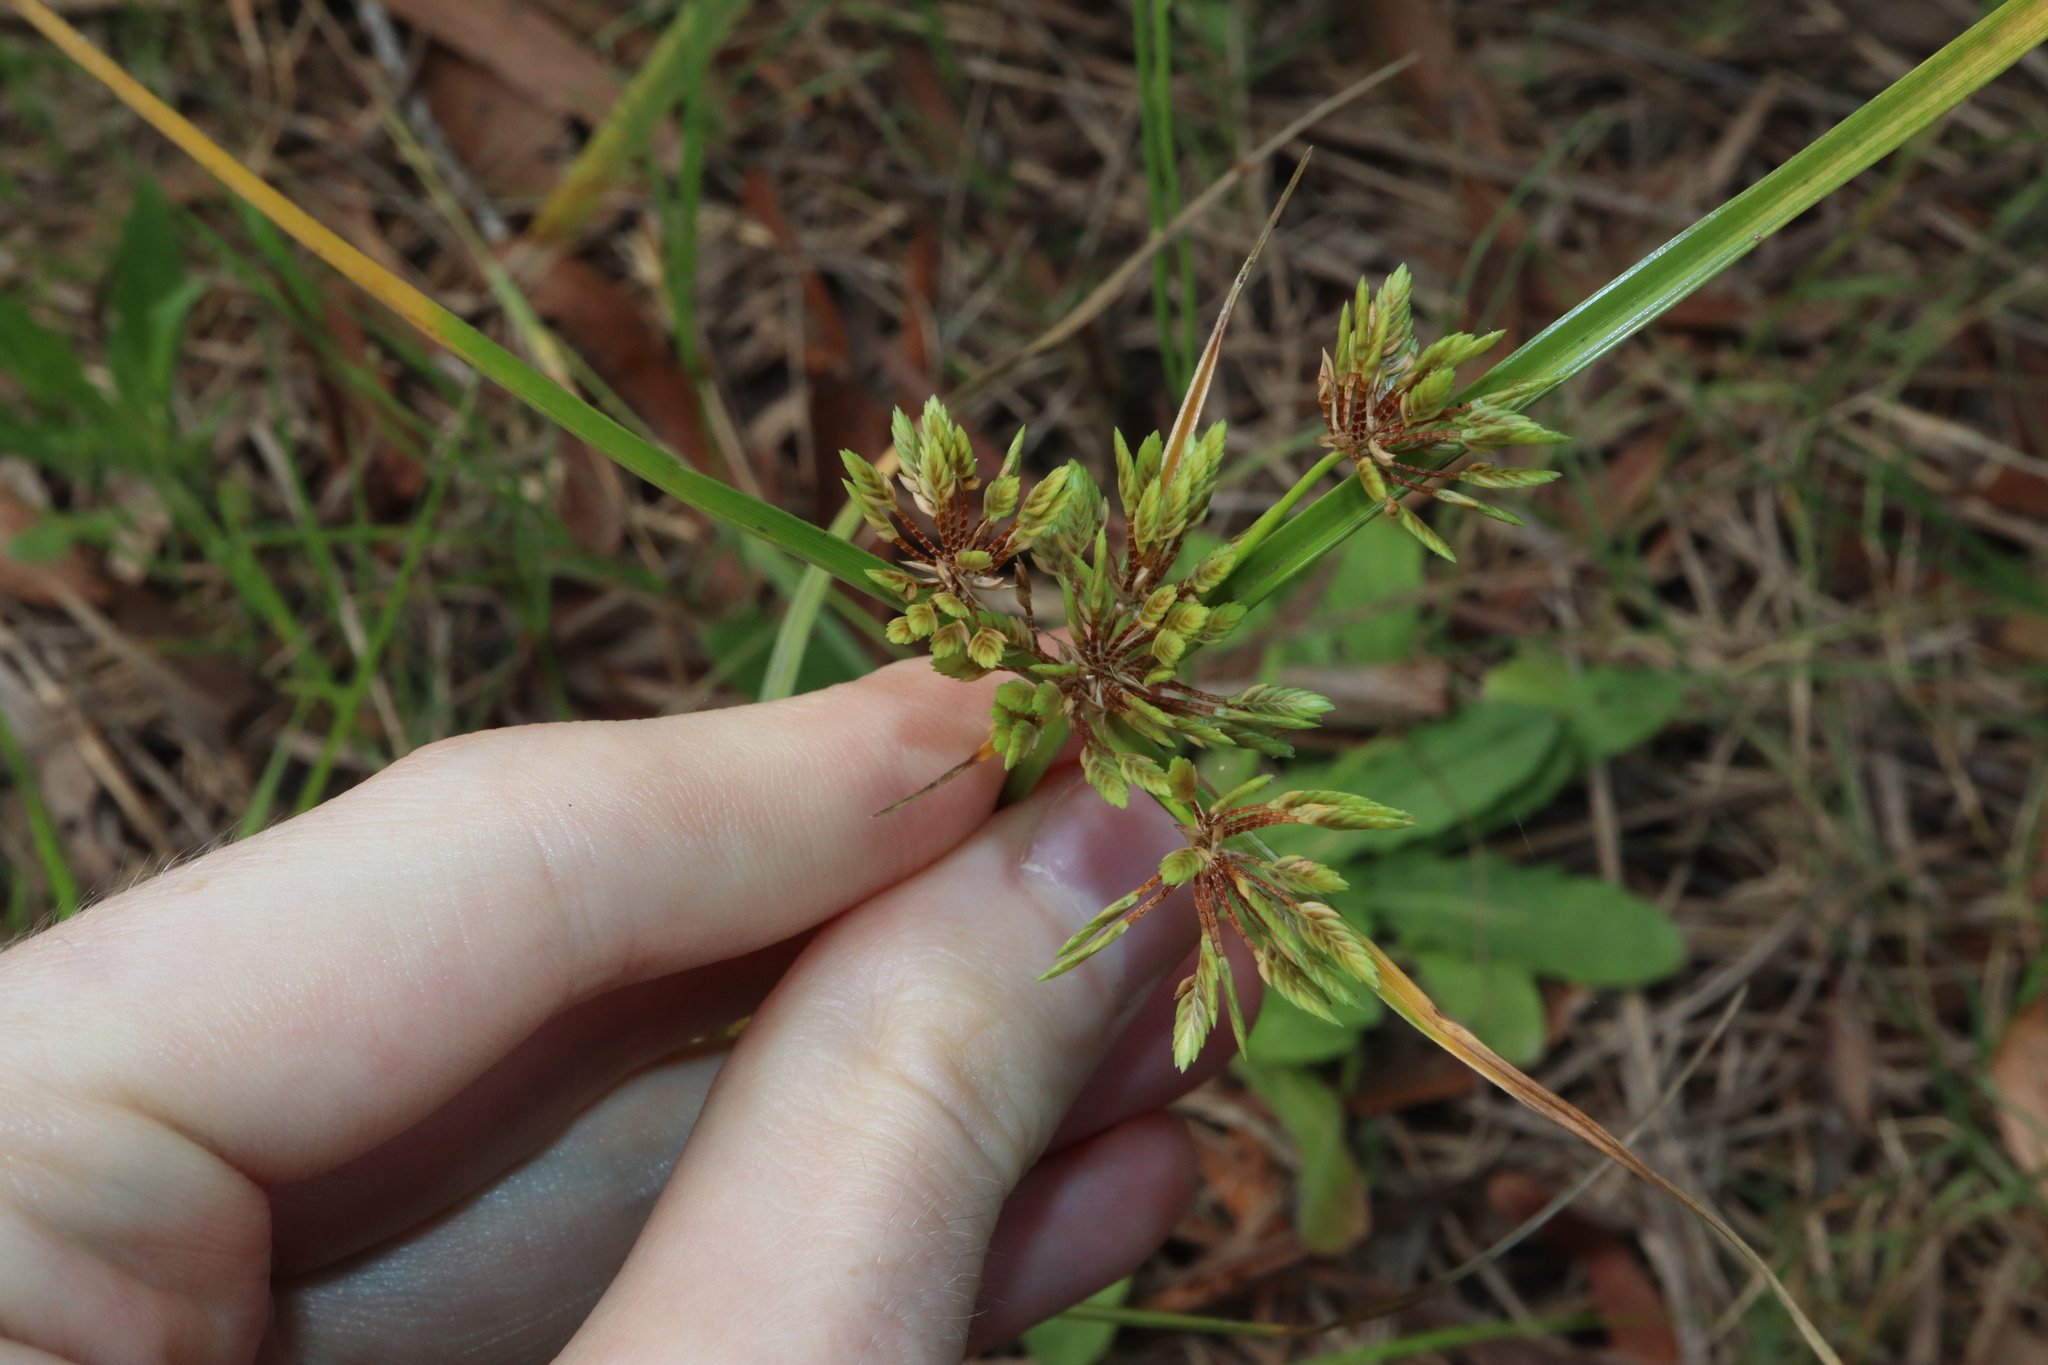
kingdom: Plantae
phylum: Tracheophyta
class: Liliopsida
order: Poales
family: Cyperaceae
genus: Cyperus
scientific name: Cyperus eragrostis
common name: Tall flatsedge
